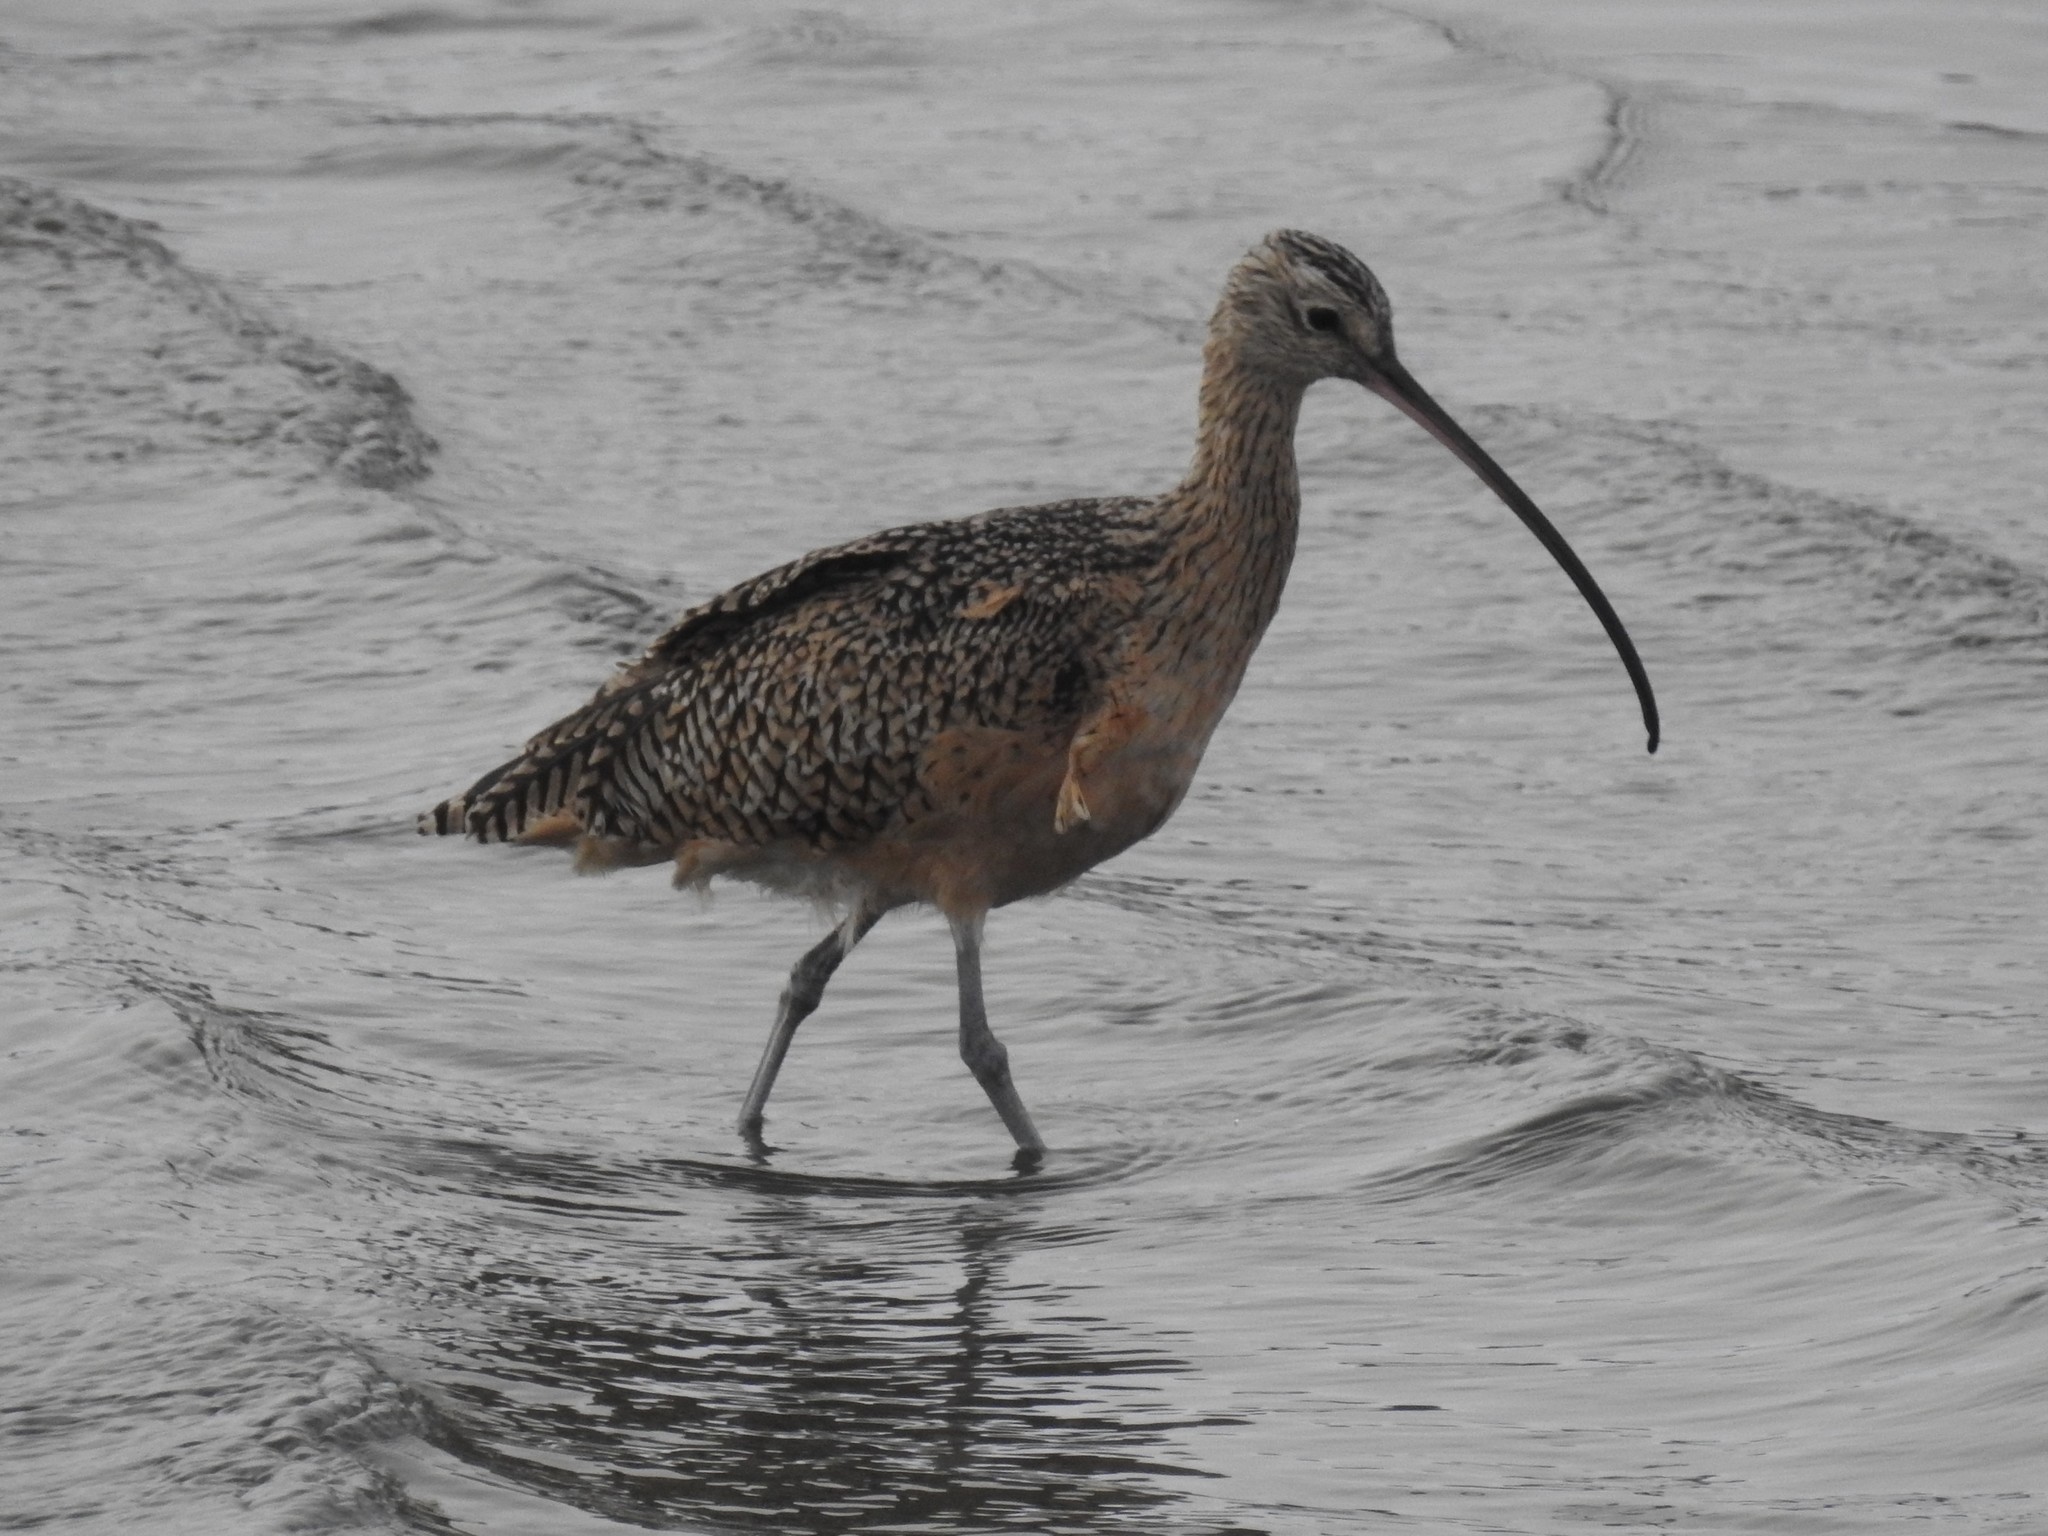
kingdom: Animalia
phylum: Chordata
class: Aves
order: Charadriiformes
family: Scolopacidae
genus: Numenius
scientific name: Numenius americanus
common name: Long-billed curlew
